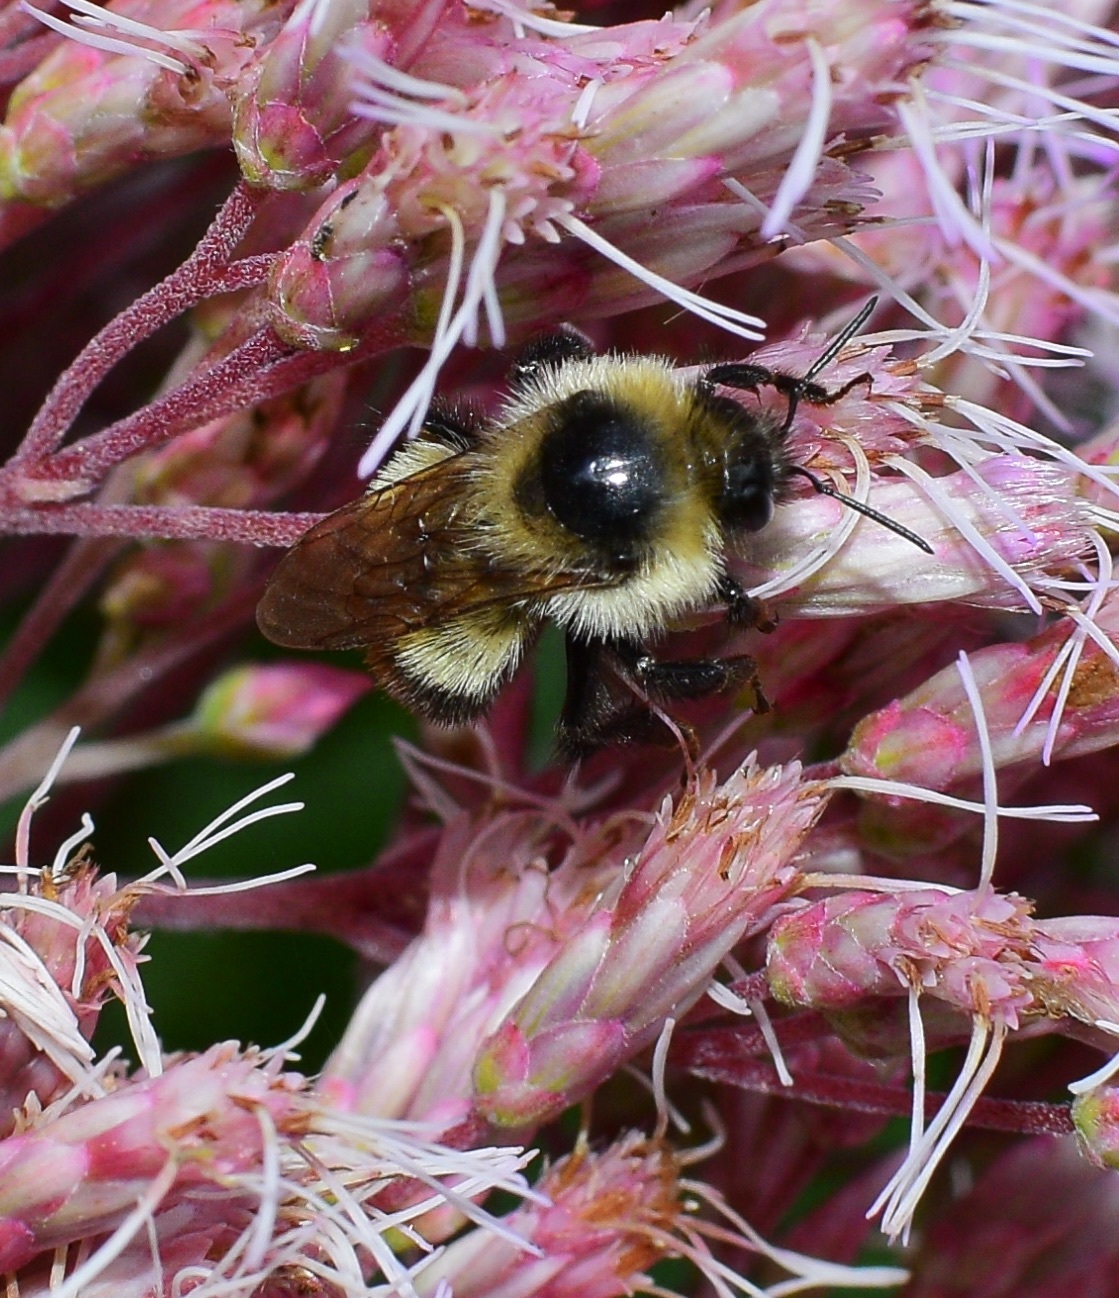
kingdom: Animalia
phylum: Arthropoda
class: Insecta
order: Hymenoptera
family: Apidae
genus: Bombus
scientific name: Bombus rufocinctus
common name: Red-belted bumble bee
